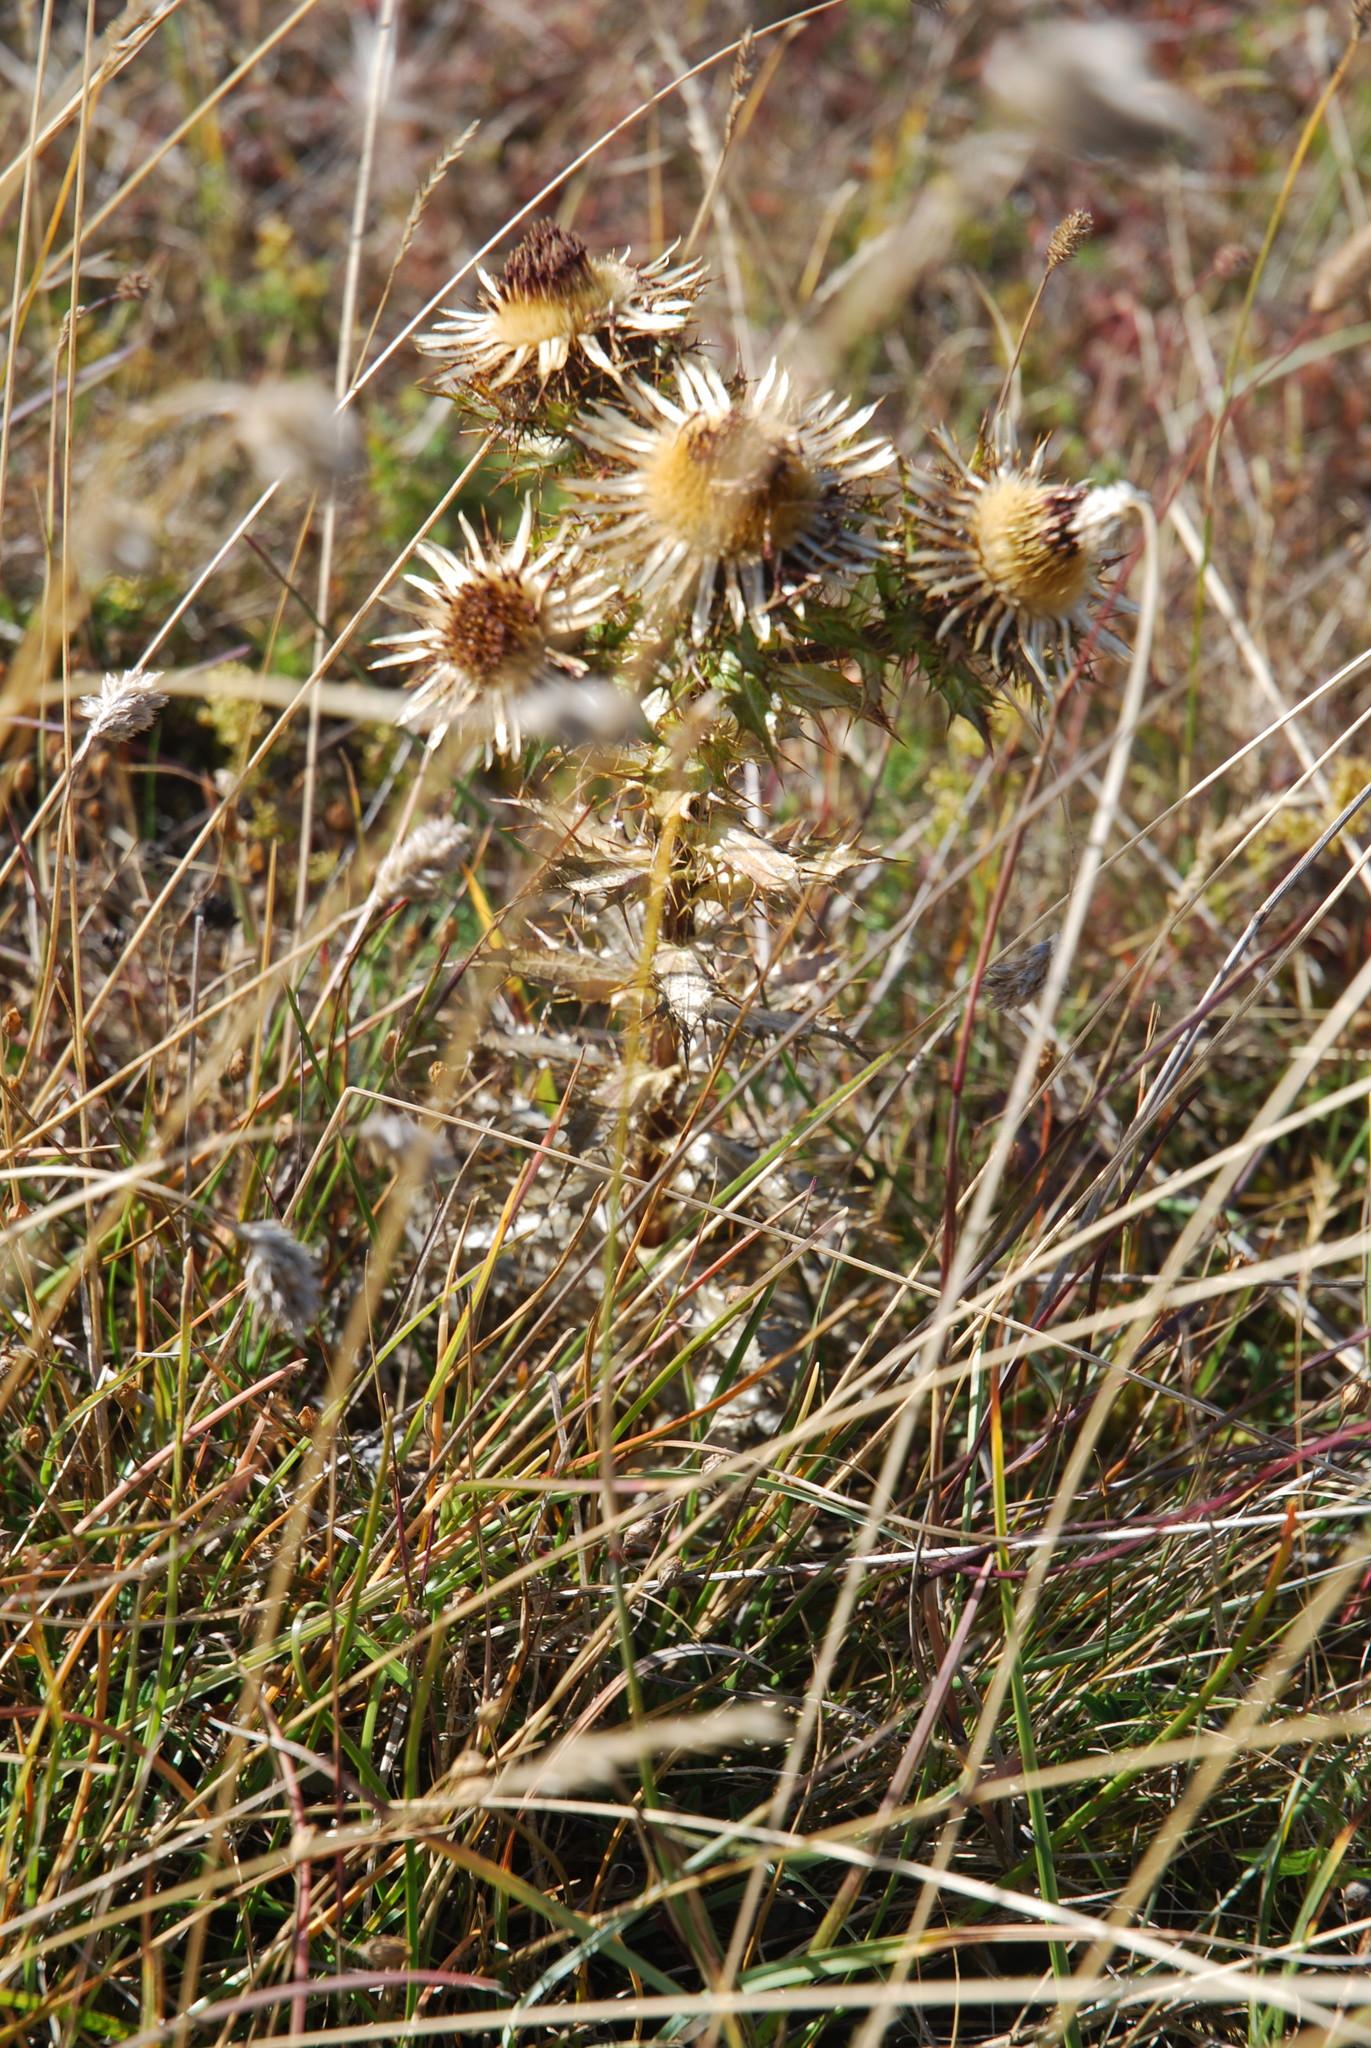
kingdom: Plantae
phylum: Tracheophyta
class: Magnoliopsida
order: Asterales
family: Asteraceae
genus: Carlina
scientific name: Carlina vulgaris
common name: Carline thistle
